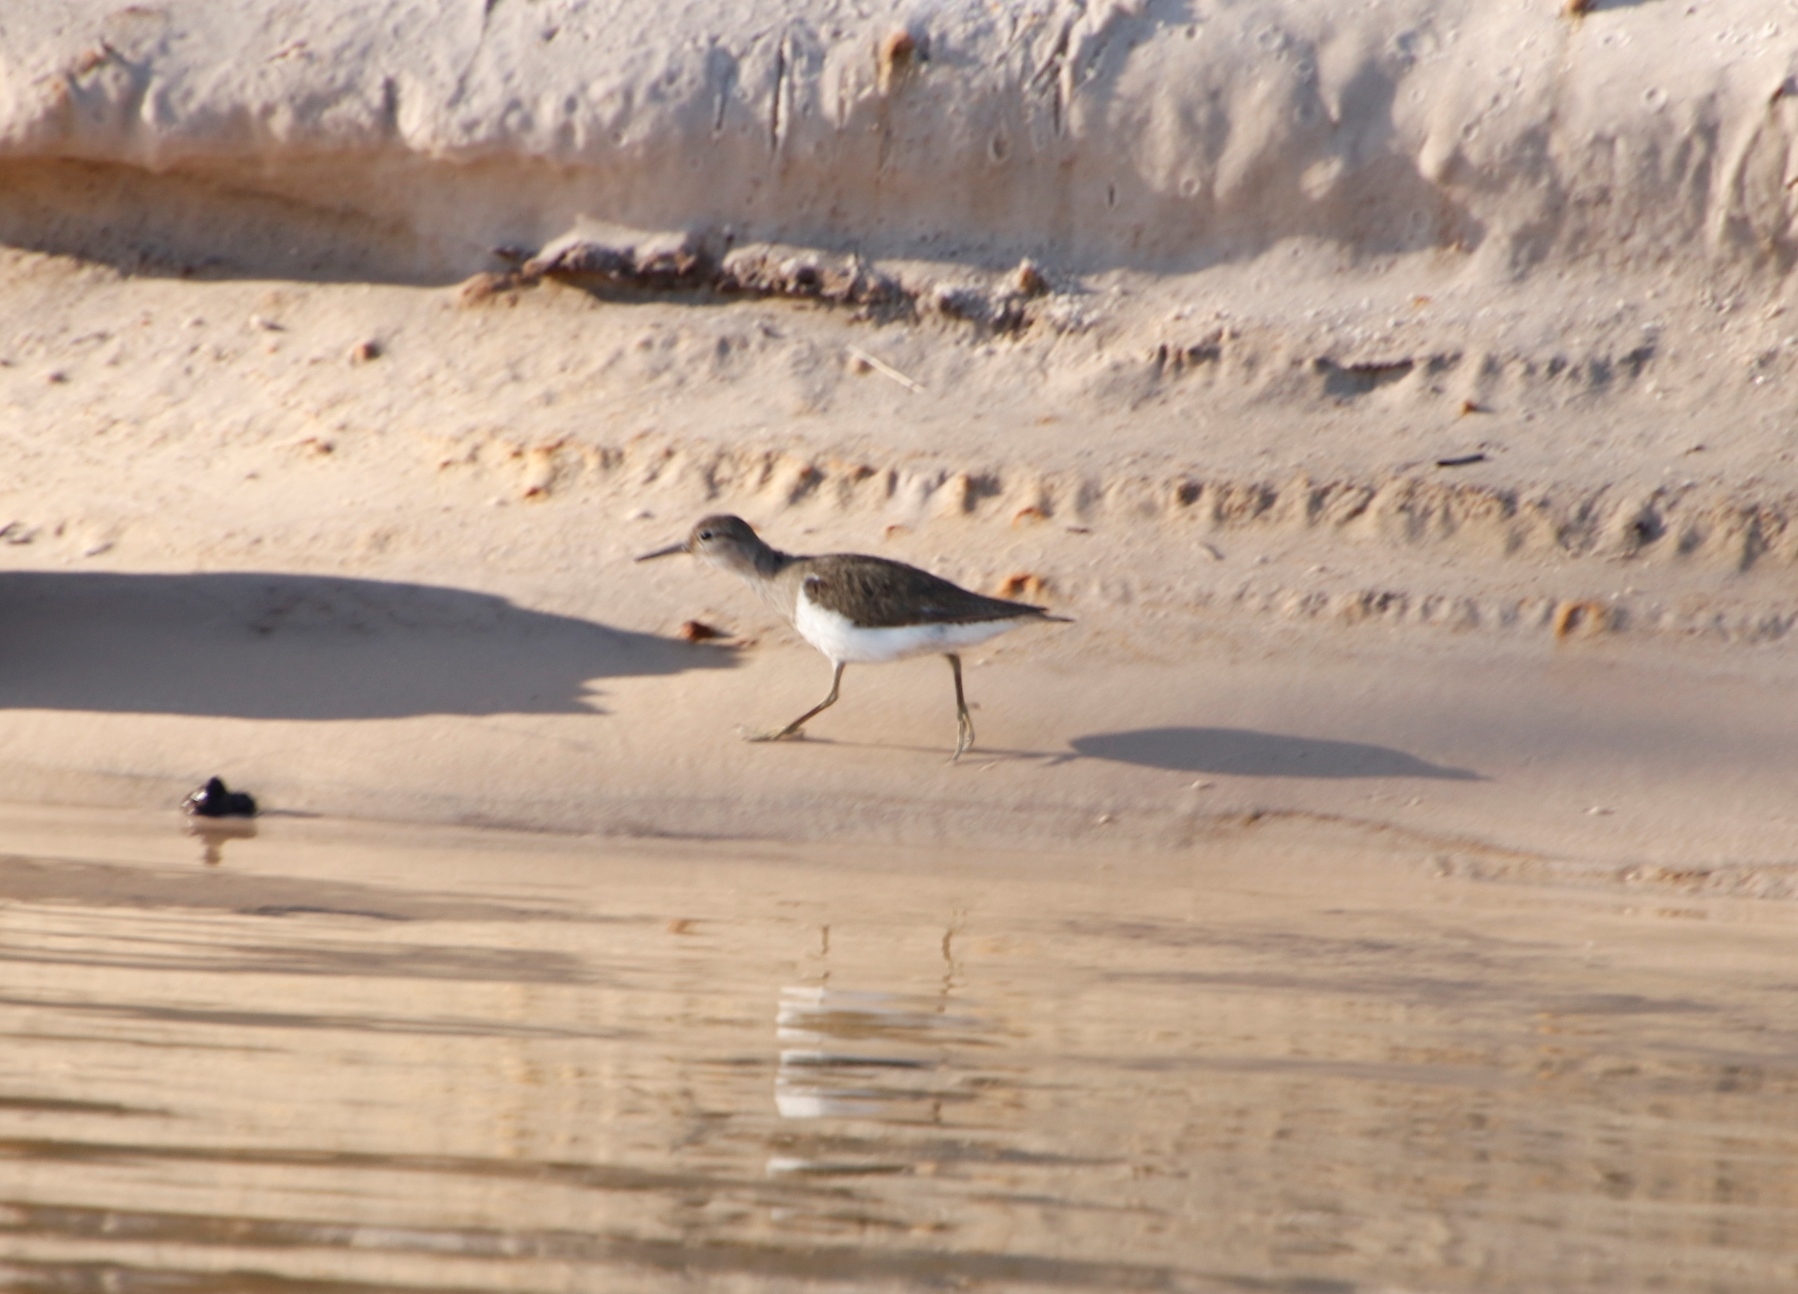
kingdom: Animalia
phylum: Chordata
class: Aves
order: Charadriiformes
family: Scolopacidae
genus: Actitis
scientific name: Actitis hypoleucos
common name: Common sandpiper
